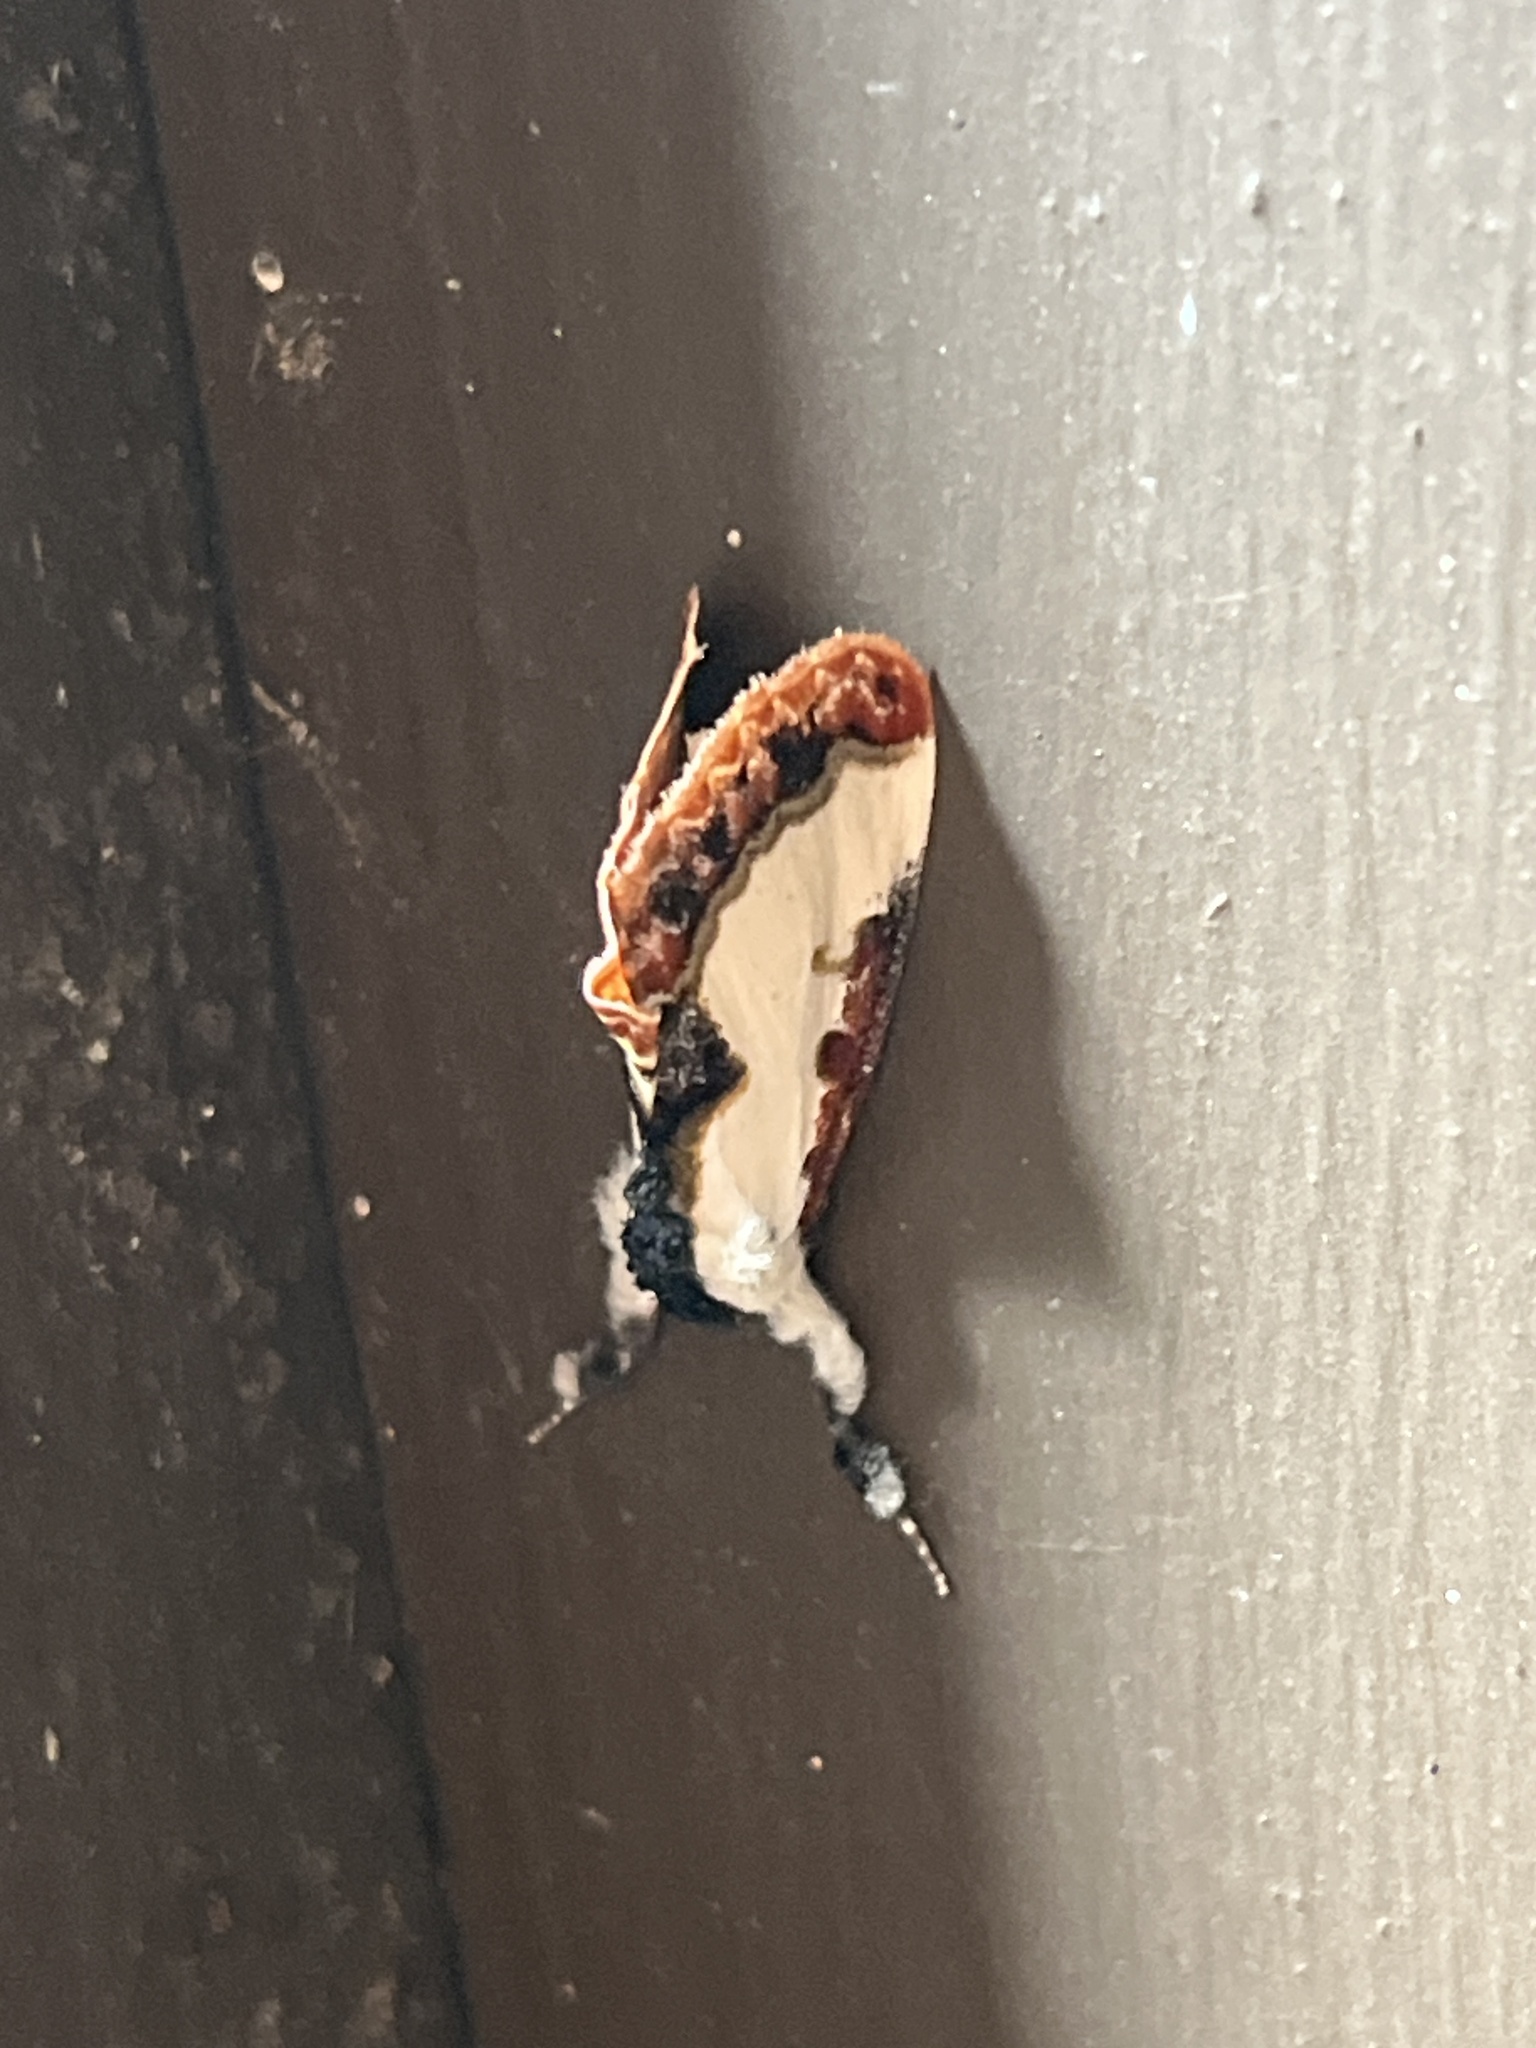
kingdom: Animalia
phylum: Arthropoda
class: Insecta
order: Lepidoptera
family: Noctuidae
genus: Eudryas
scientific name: Eudryas unio
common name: Pearly wood-nymph
